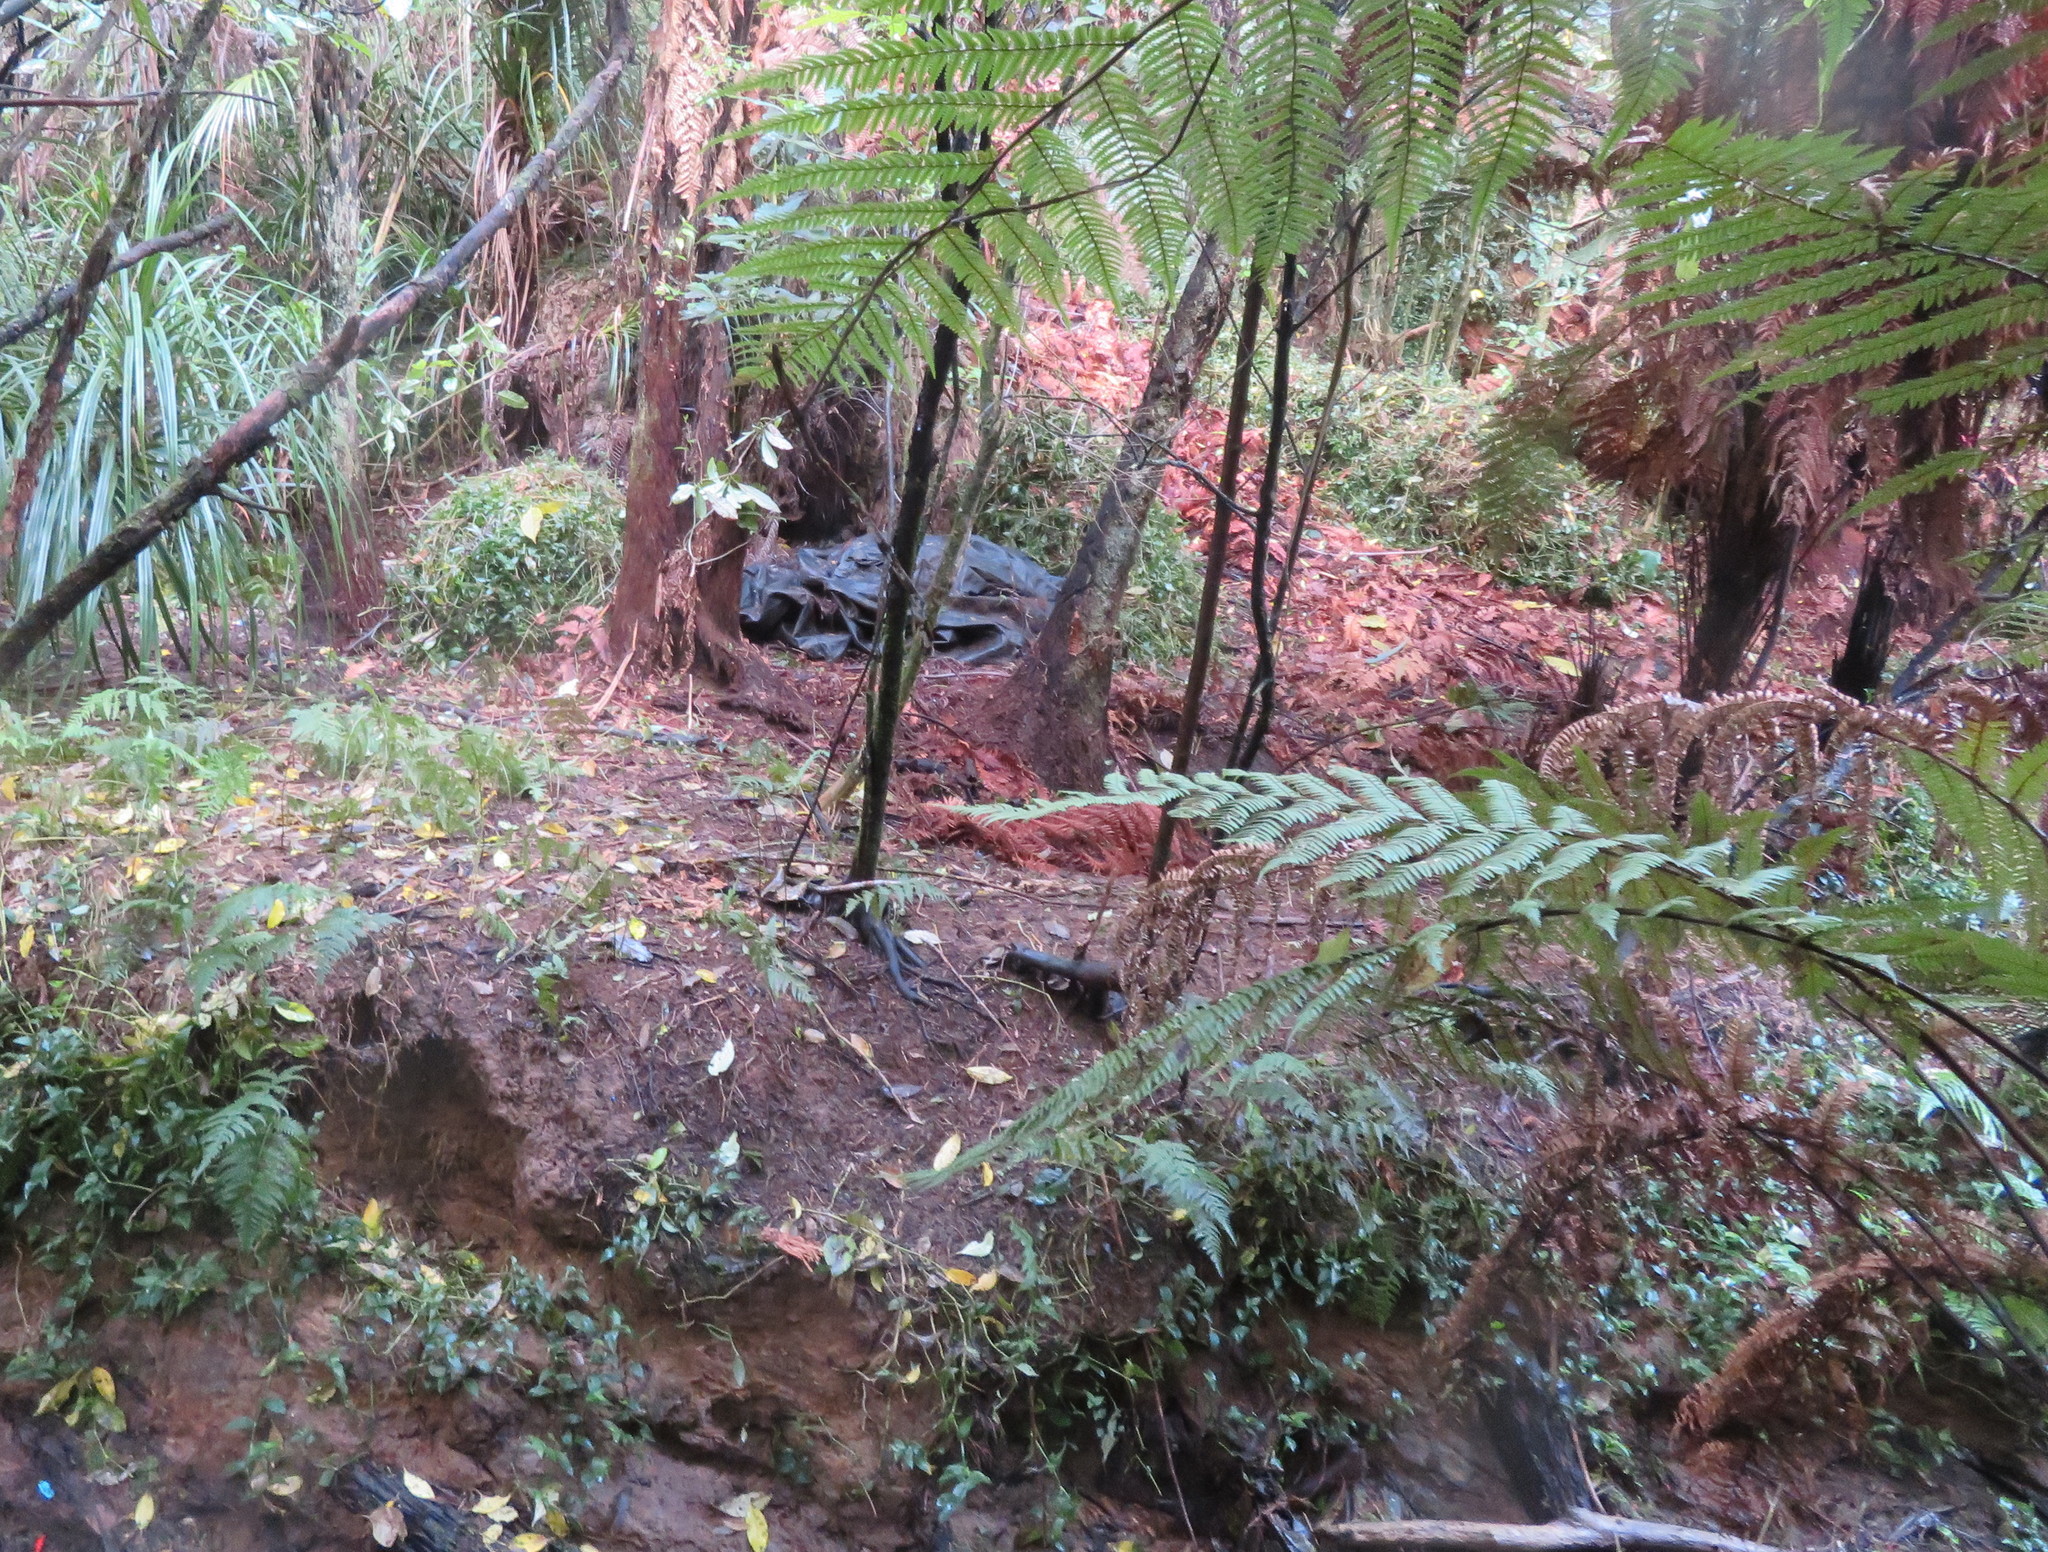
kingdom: Plantae
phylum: Tracheophyta
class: Liliopsida
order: Commelinales
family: Commelinaceae
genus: Tradescantia
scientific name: Tradescantia fluminensis
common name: Wandering-jew
